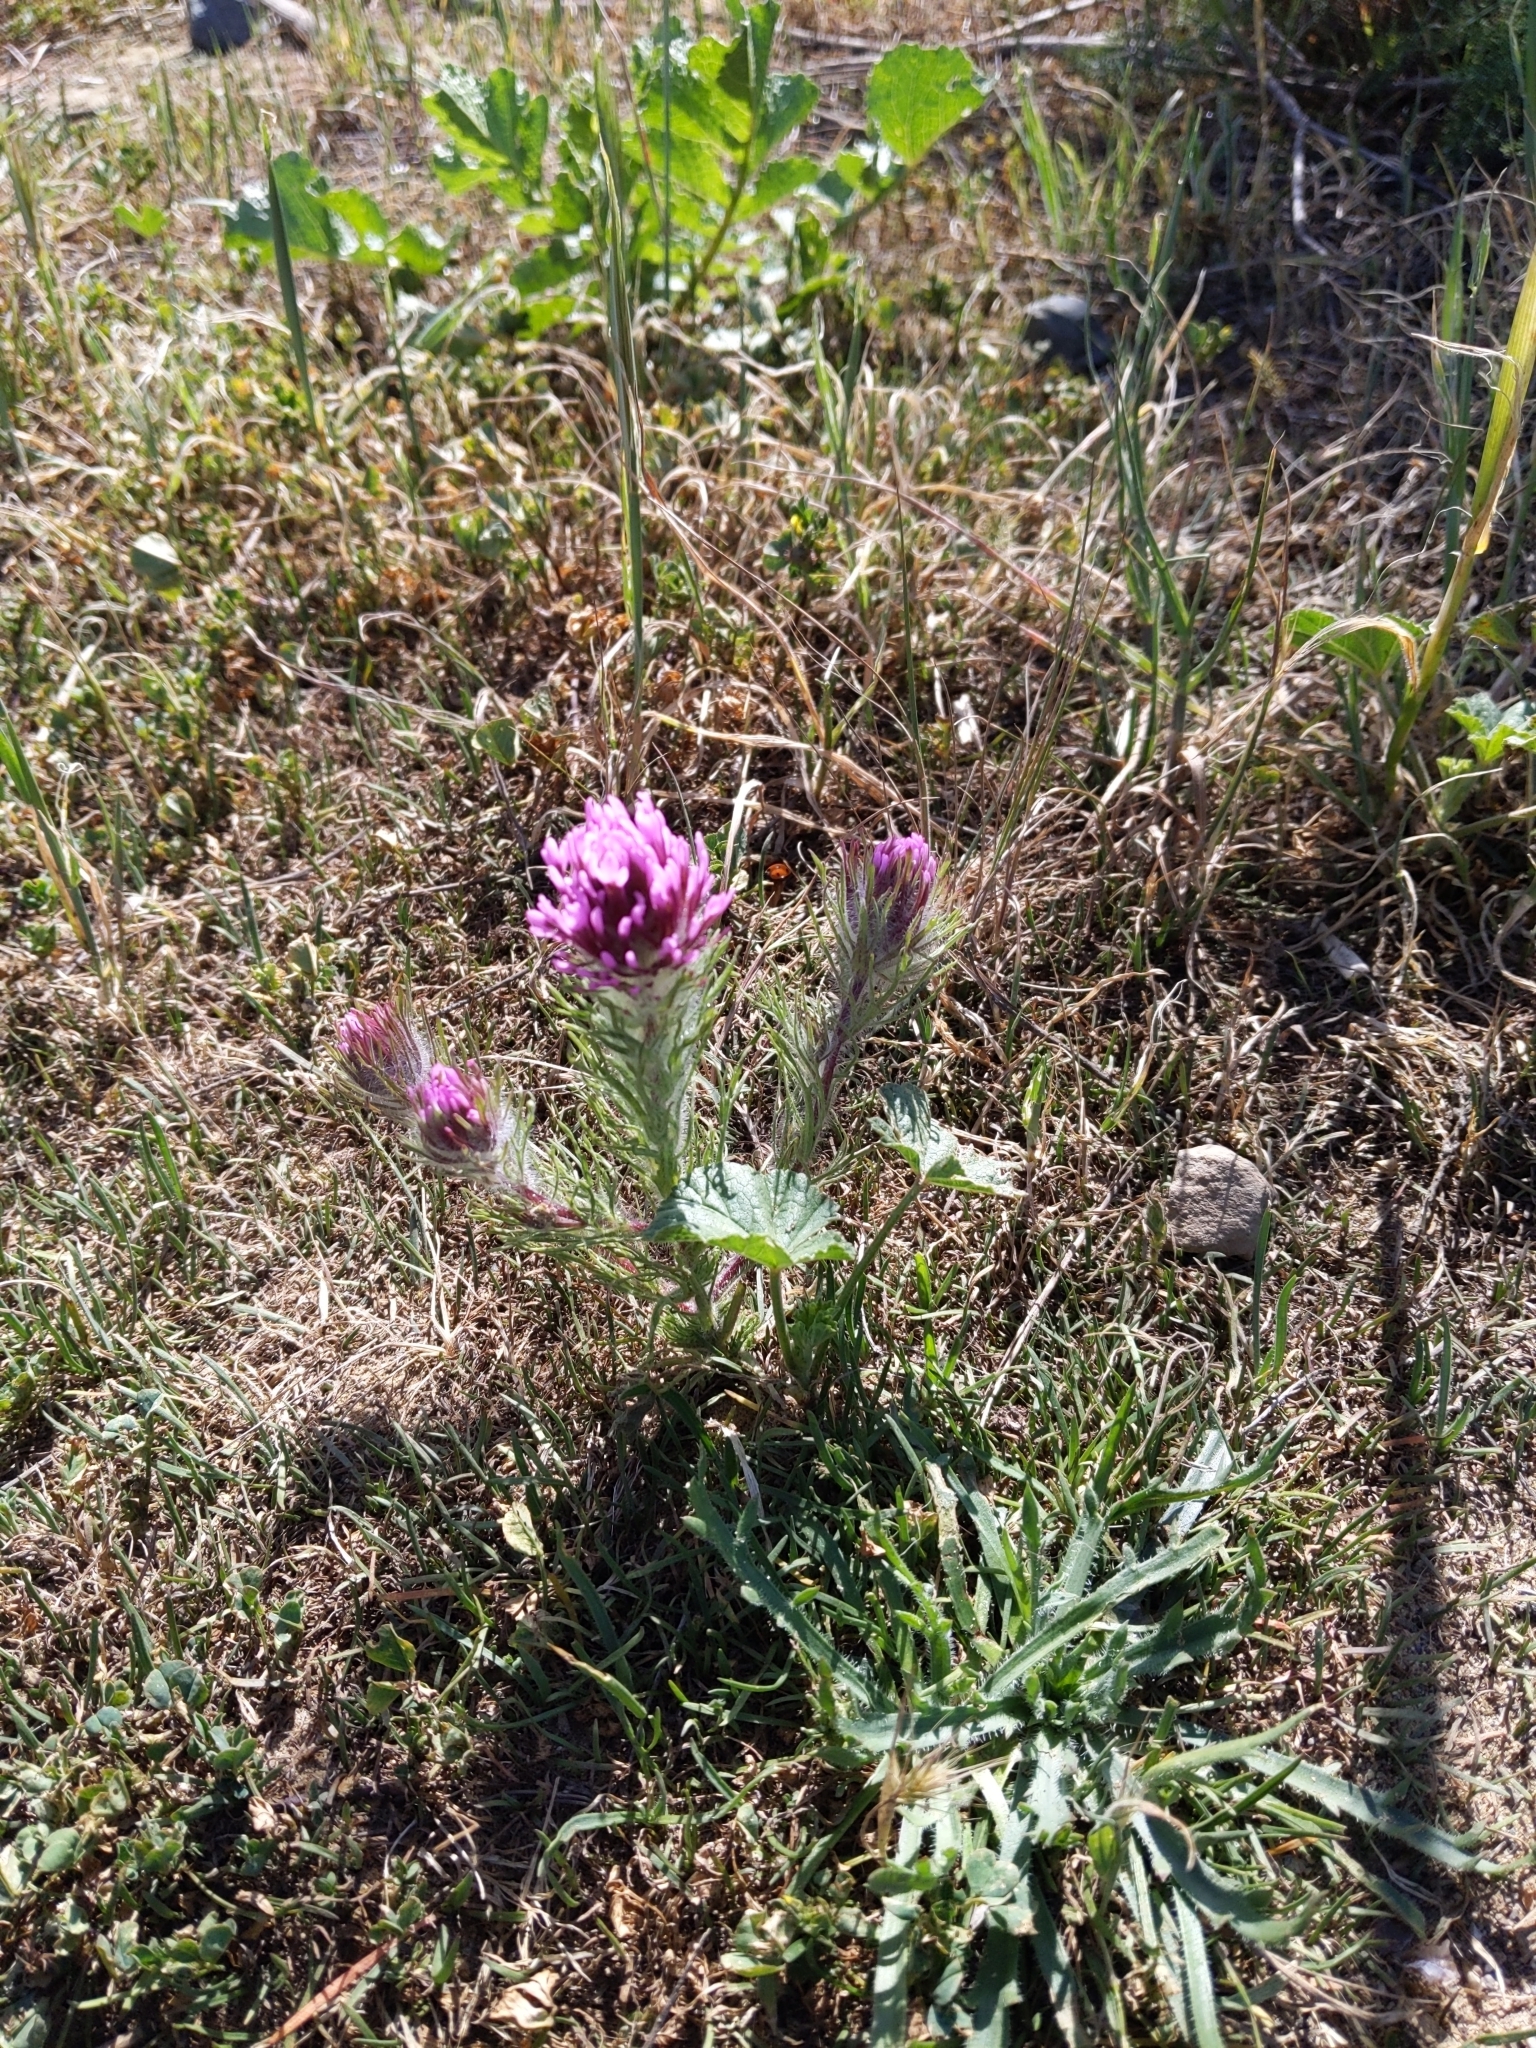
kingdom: Plantae
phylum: Tracheophyta
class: Magnoliopsida
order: Lamiales
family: Orobanchaceae
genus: Castilleja
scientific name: Castilleja exserta
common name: Purple owl-clover
